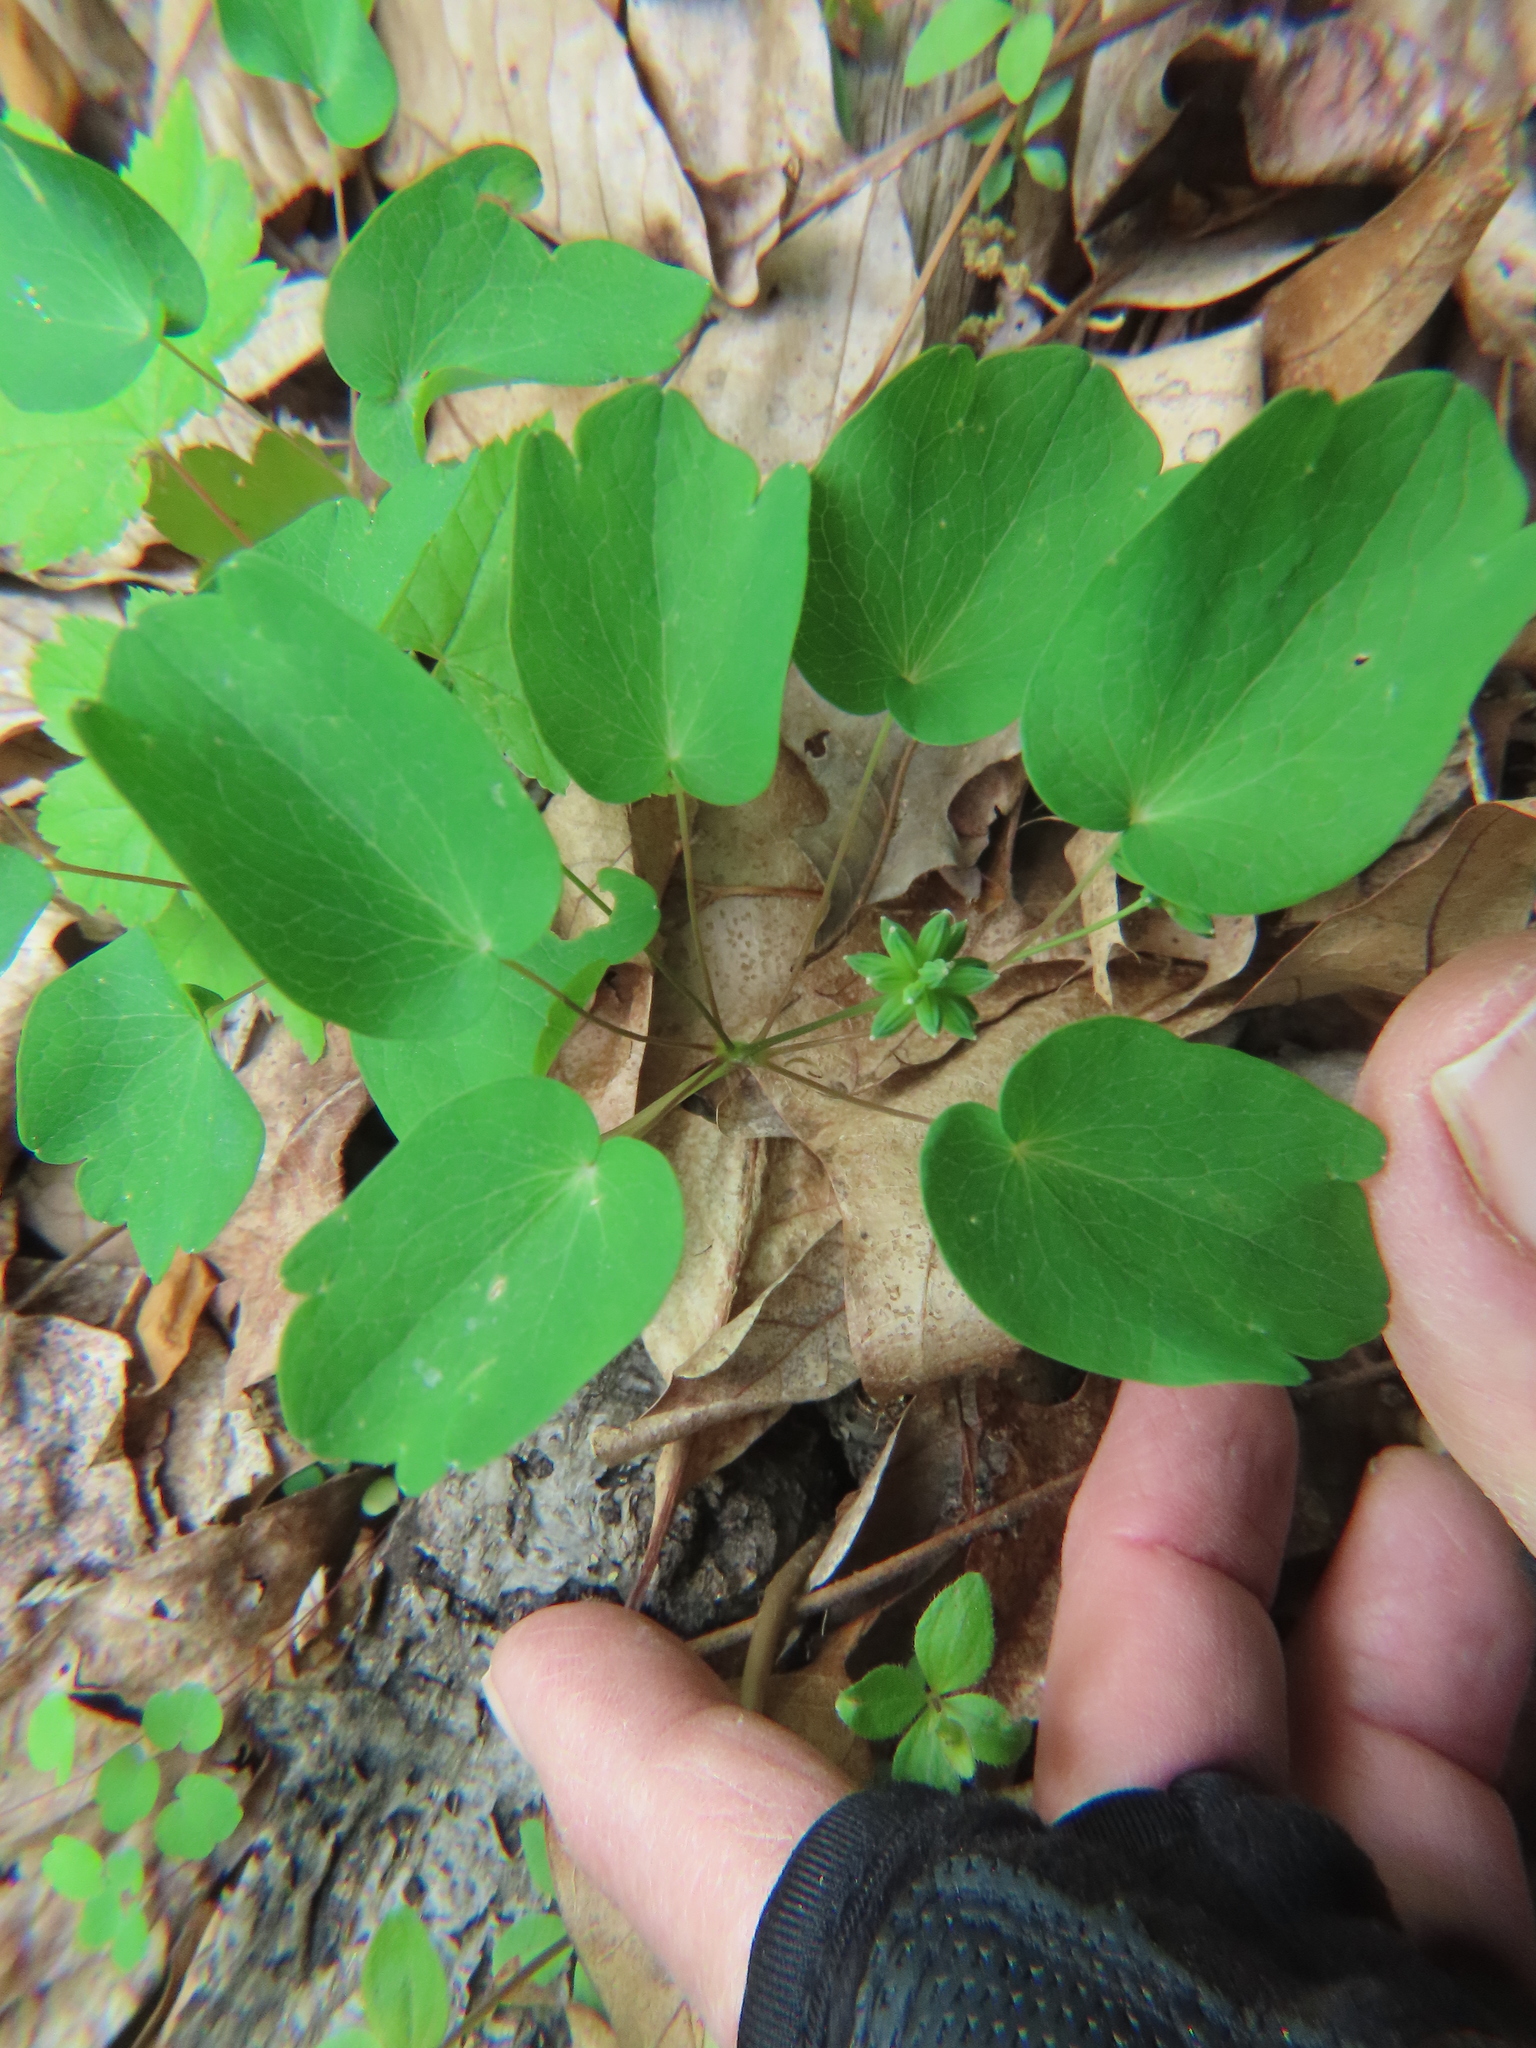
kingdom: Plantae
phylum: Tracheophyta
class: Magnoliopsida
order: Ranunculales
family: Ranunculaceae
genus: Thalictrum
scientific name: Thalictrum thalictroides
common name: Rue-anemone
